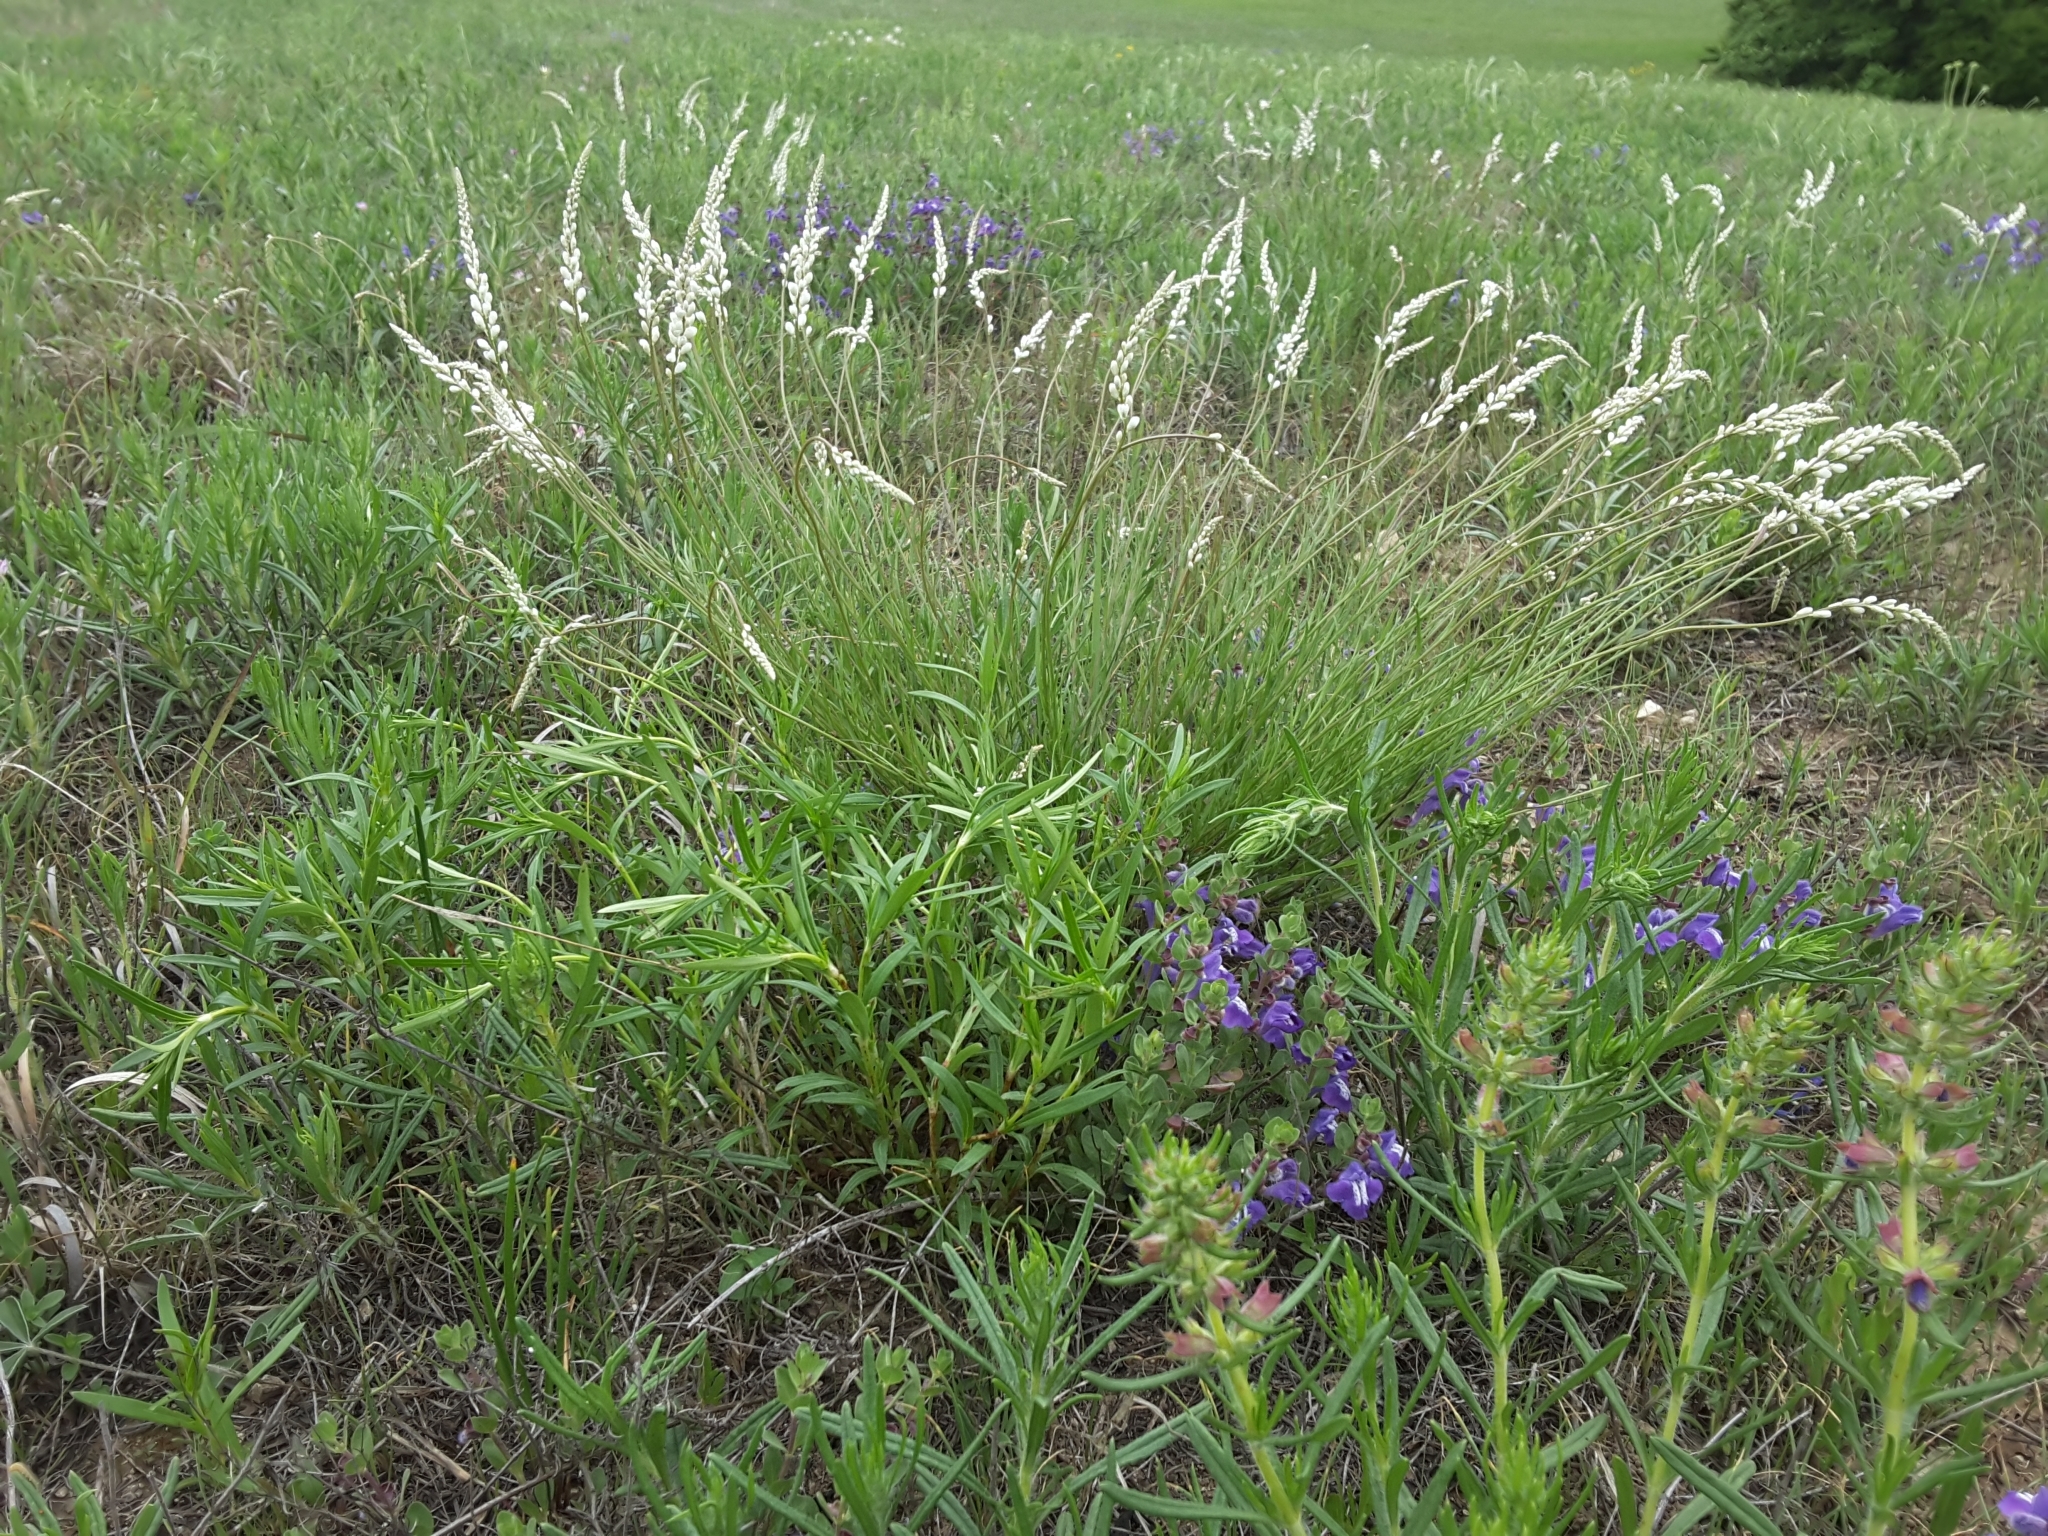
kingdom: Plantae
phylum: Tracheophyta
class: Magnoliopsida
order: Fabales
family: Polygalaceae
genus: Polygala
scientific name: Polygala alba
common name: White milkwort
